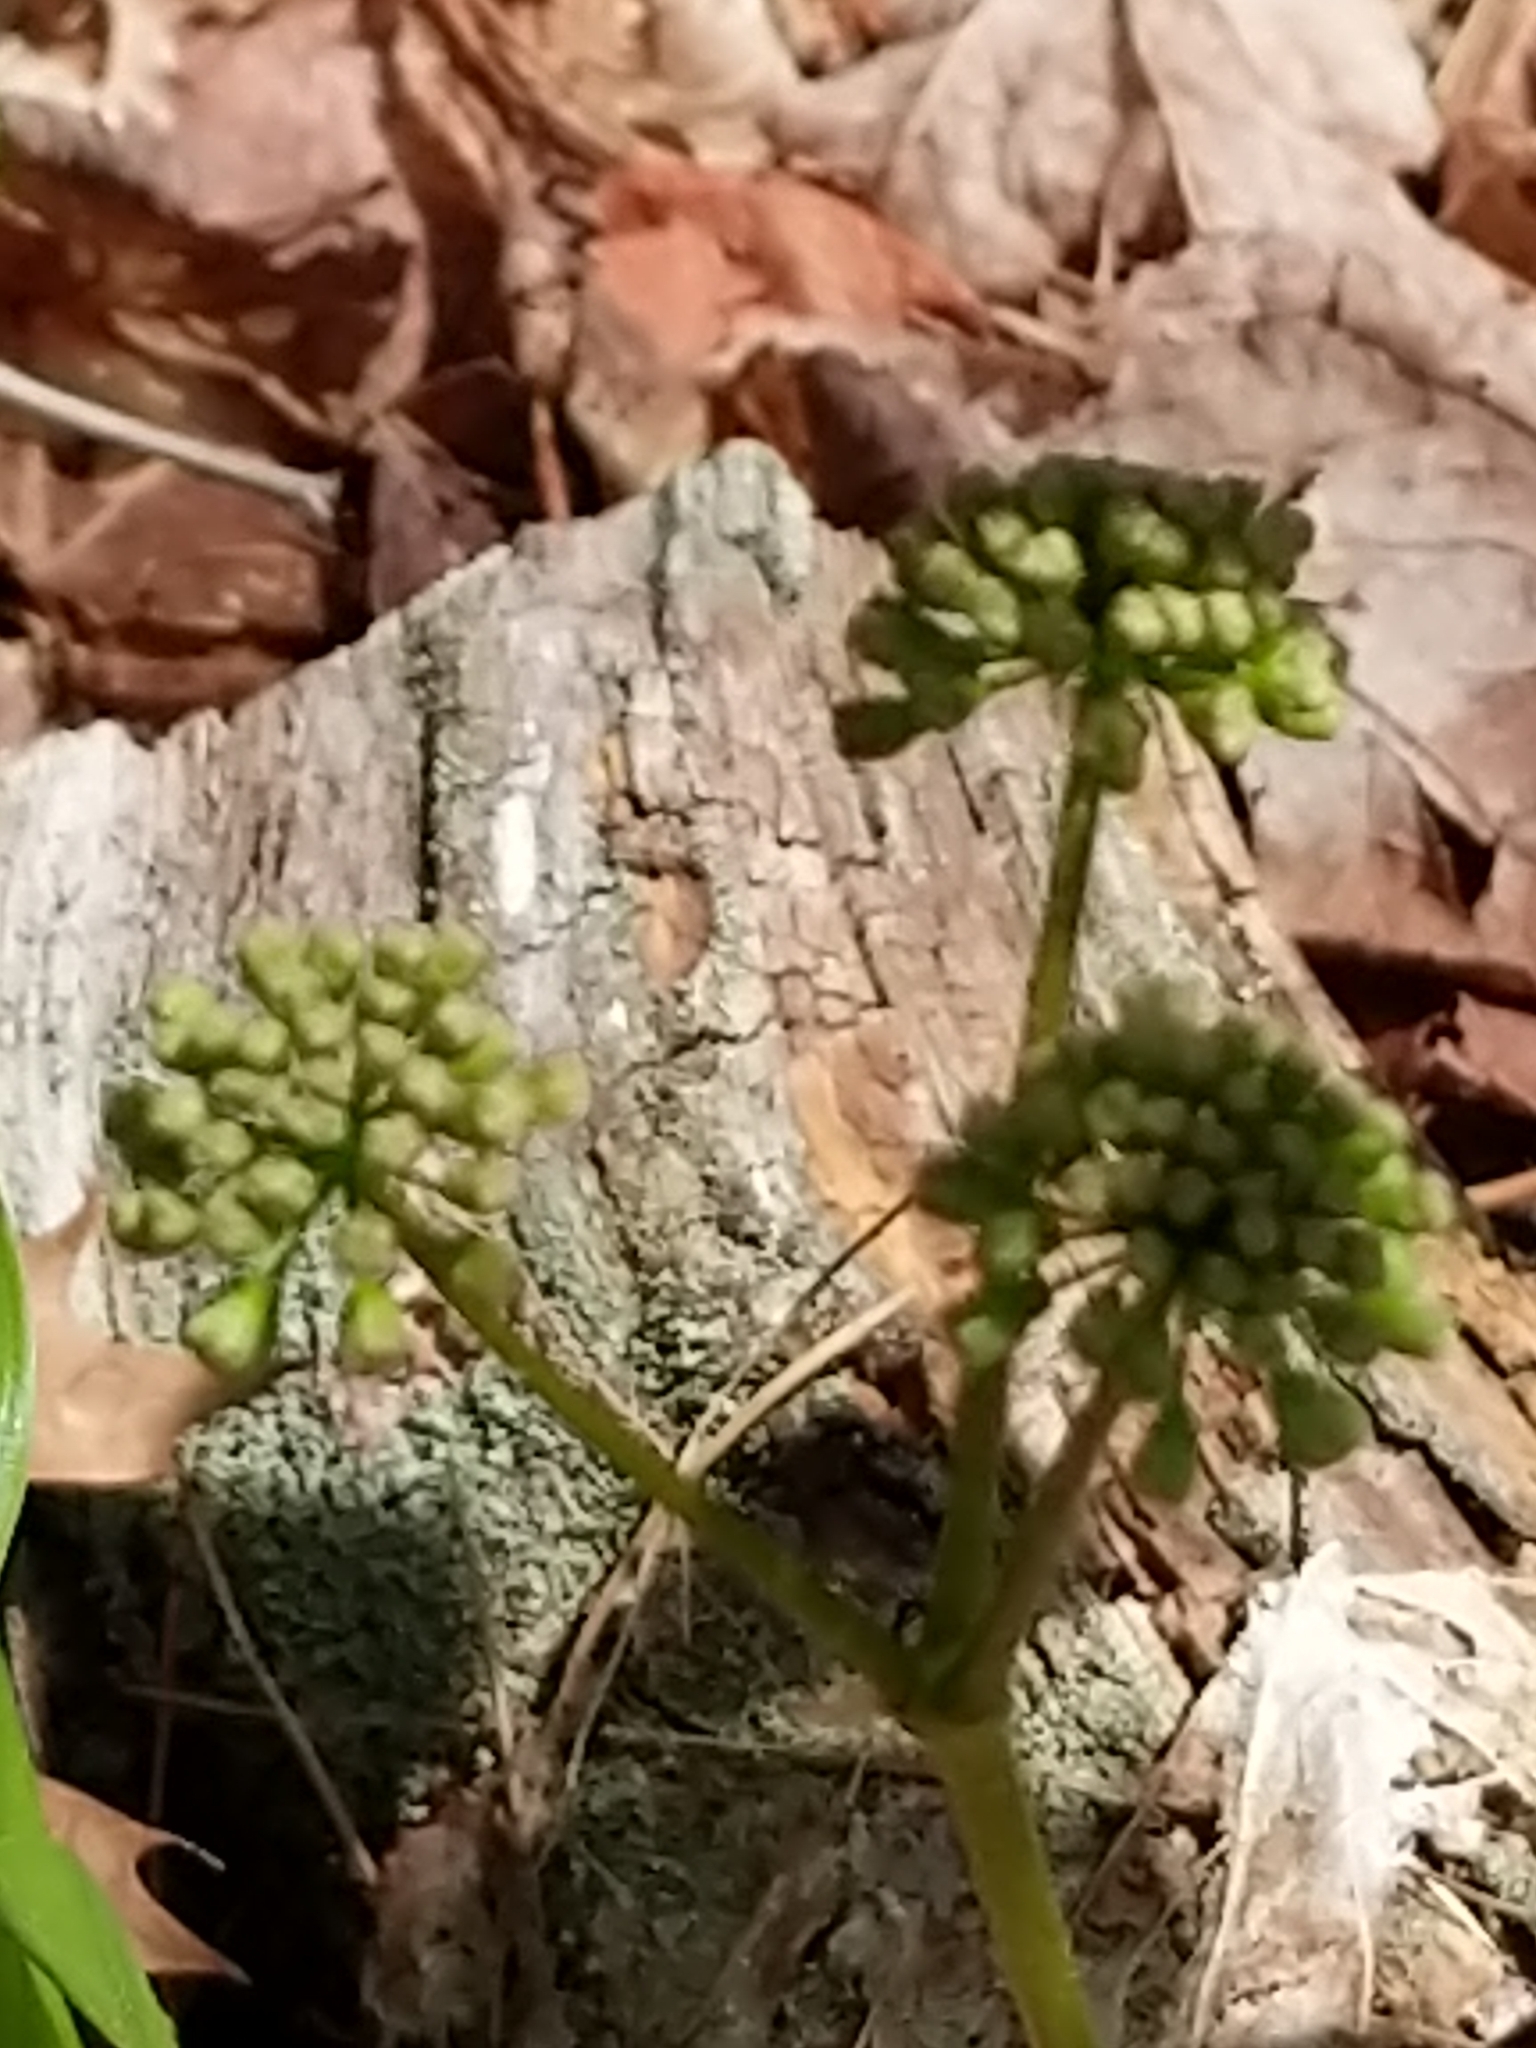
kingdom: Plantae
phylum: Tracheophyta
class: Magnoliopsida
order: Apiales
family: Araliaceae
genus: Aralia
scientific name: Aralia nudicaulis
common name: Wild sarsaparilla
